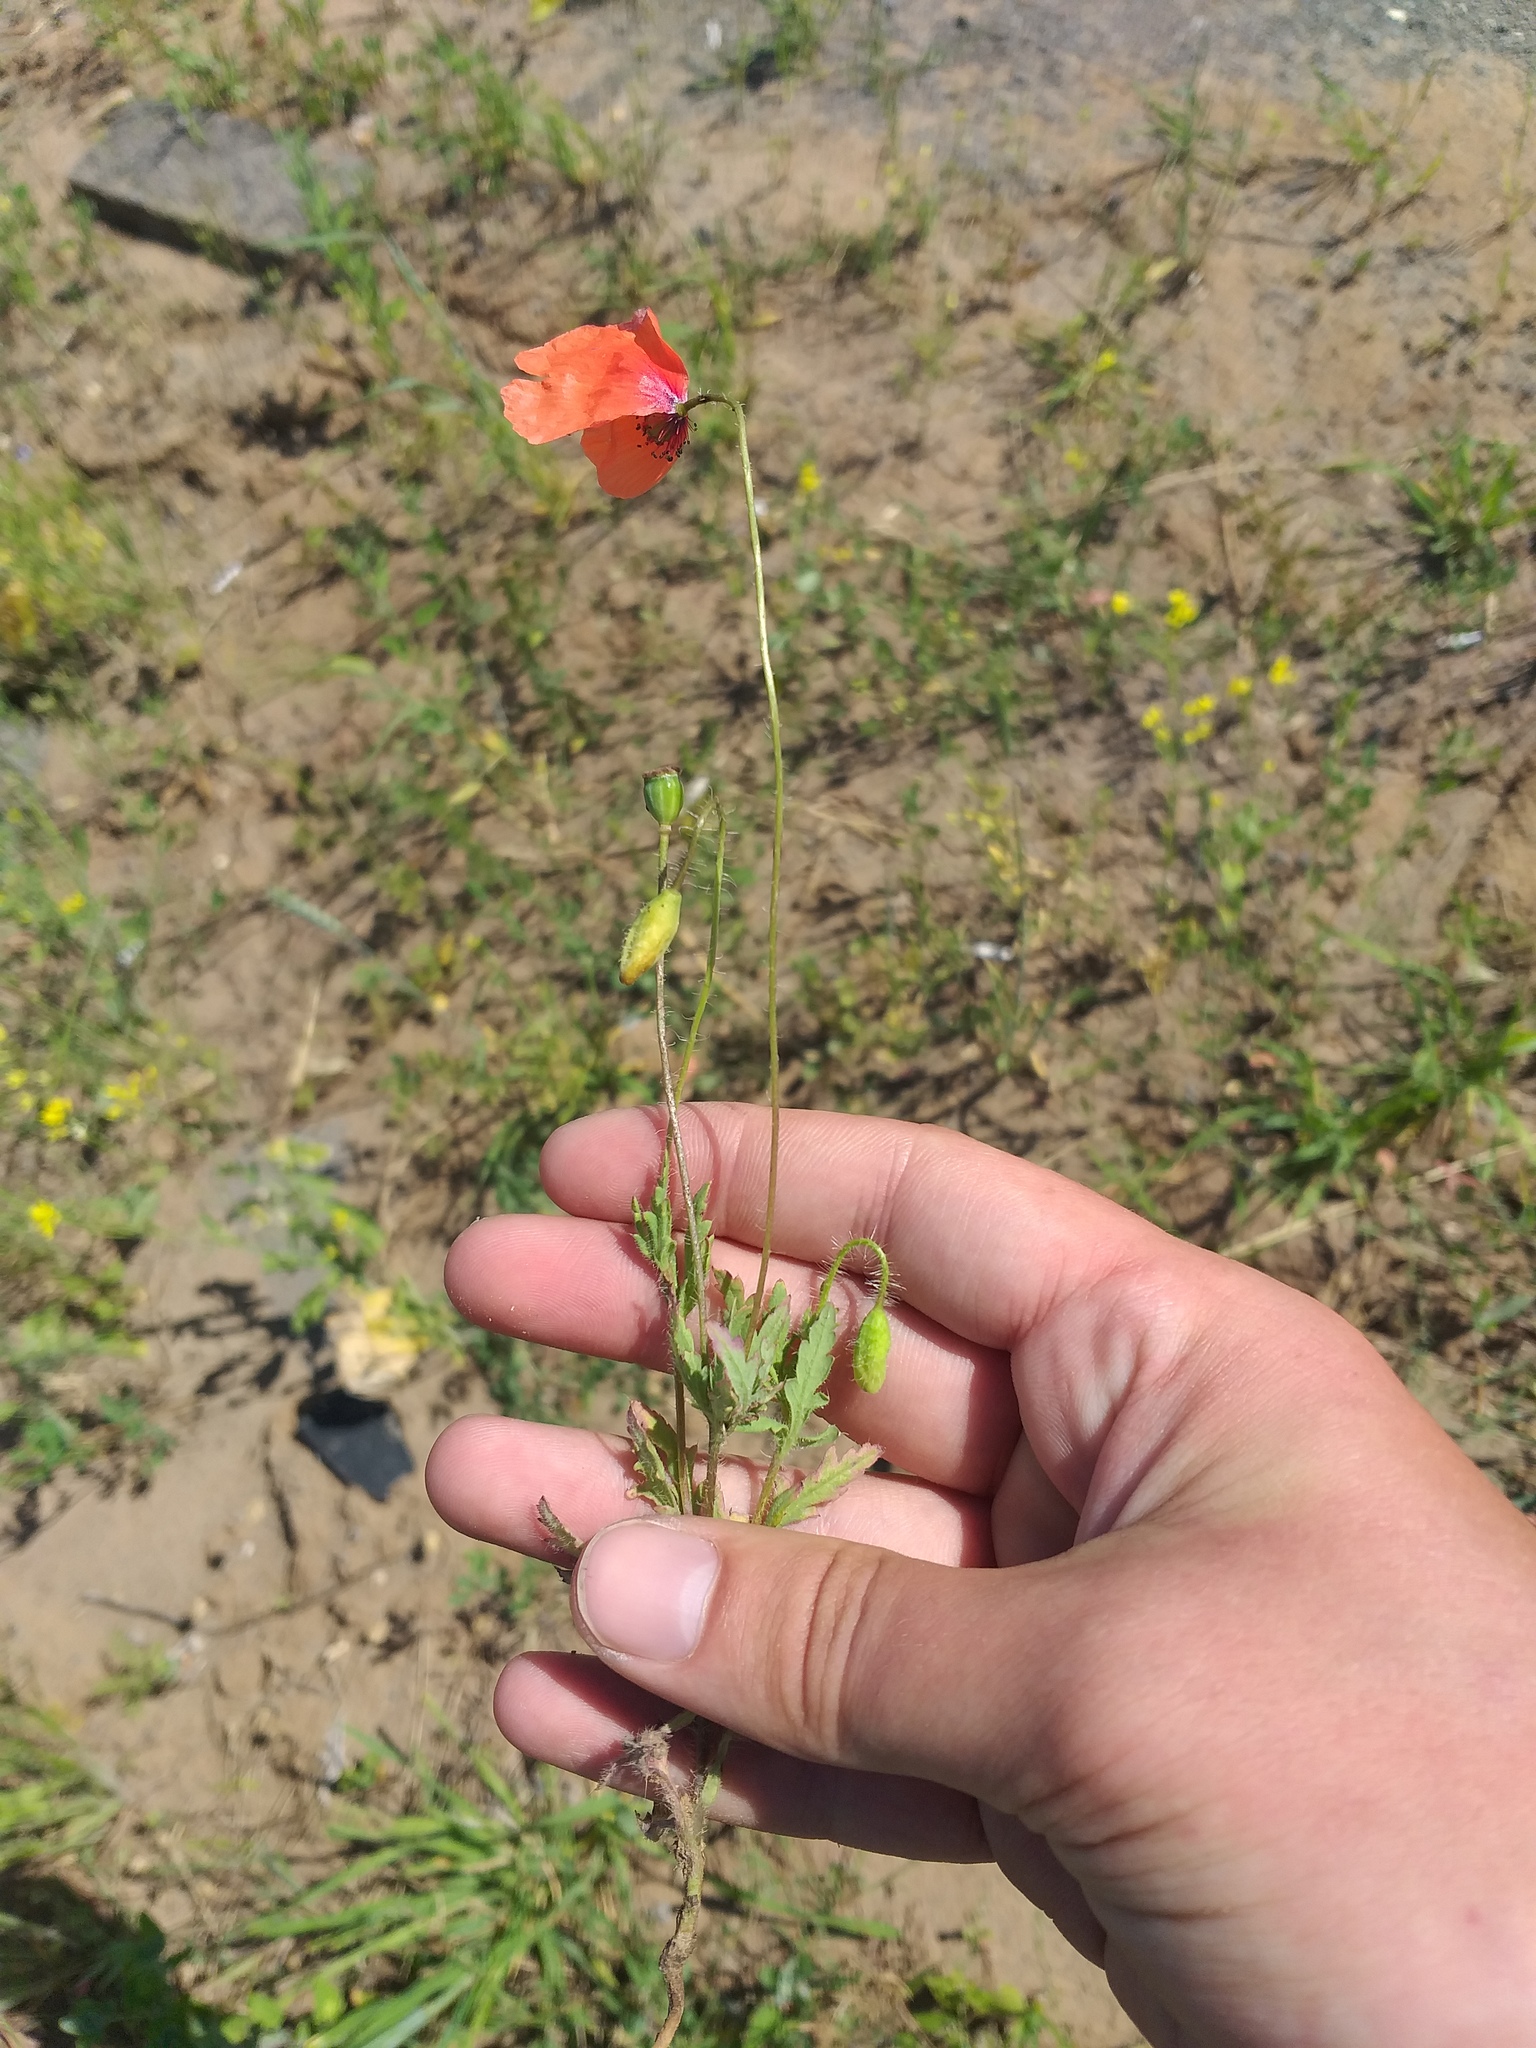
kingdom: Plantae
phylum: Tracheophyta
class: Magnoliopsida
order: Ranunculales
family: Papaveraceae
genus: Papaver
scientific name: Papaver rhoeas
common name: Corn poppy
